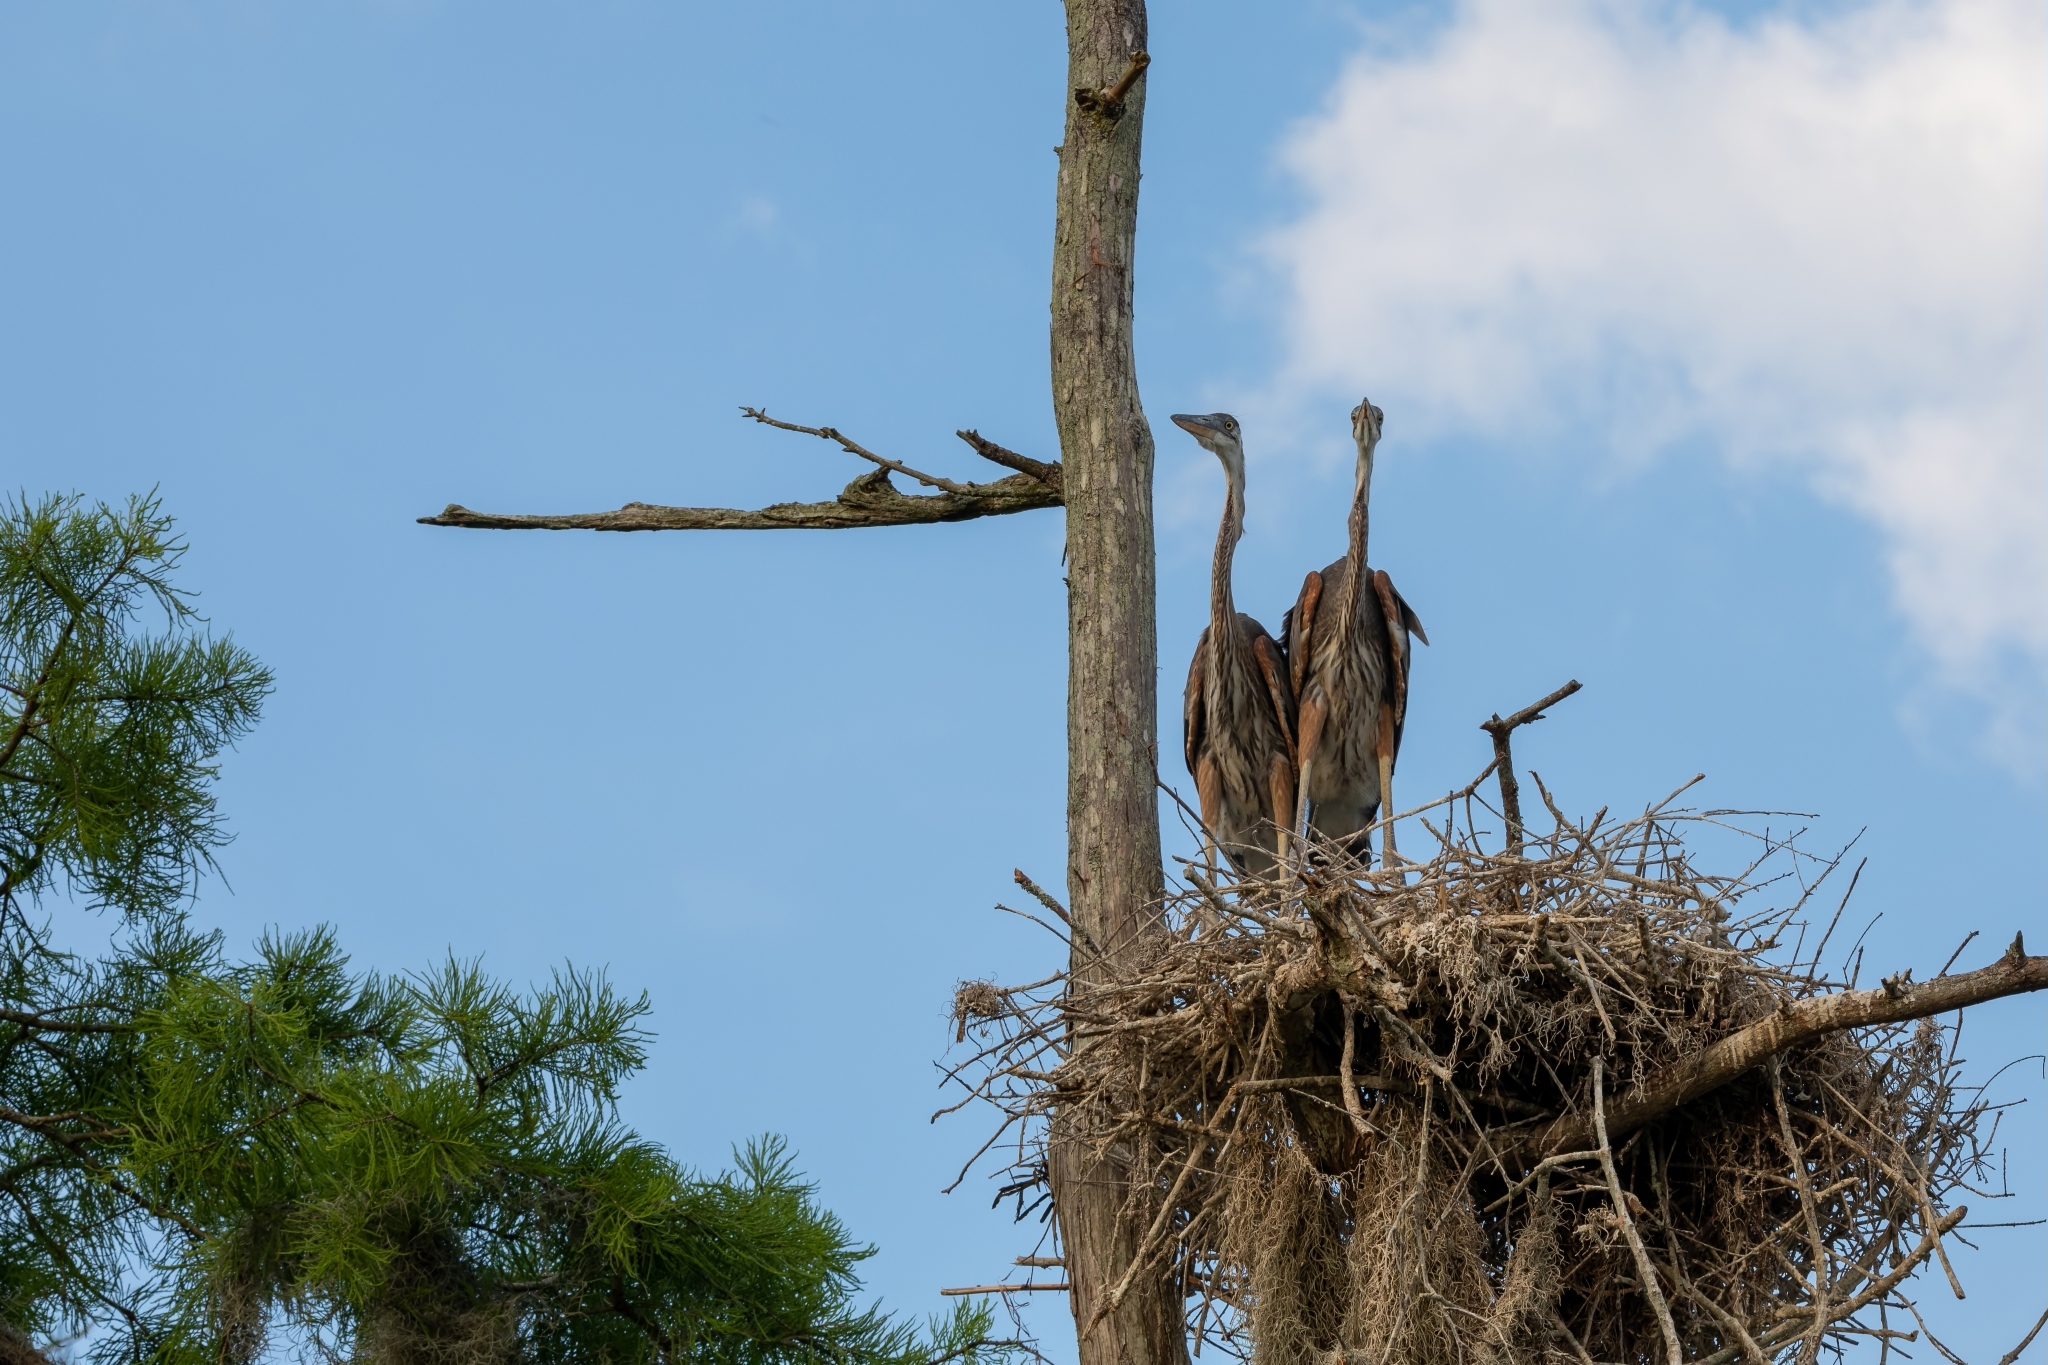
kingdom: Animalia
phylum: Chordata
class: Aves
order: Pelecaniformes
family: Ardeidae
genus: Ardea
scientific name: Ardea herodias
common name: Great blue heron
